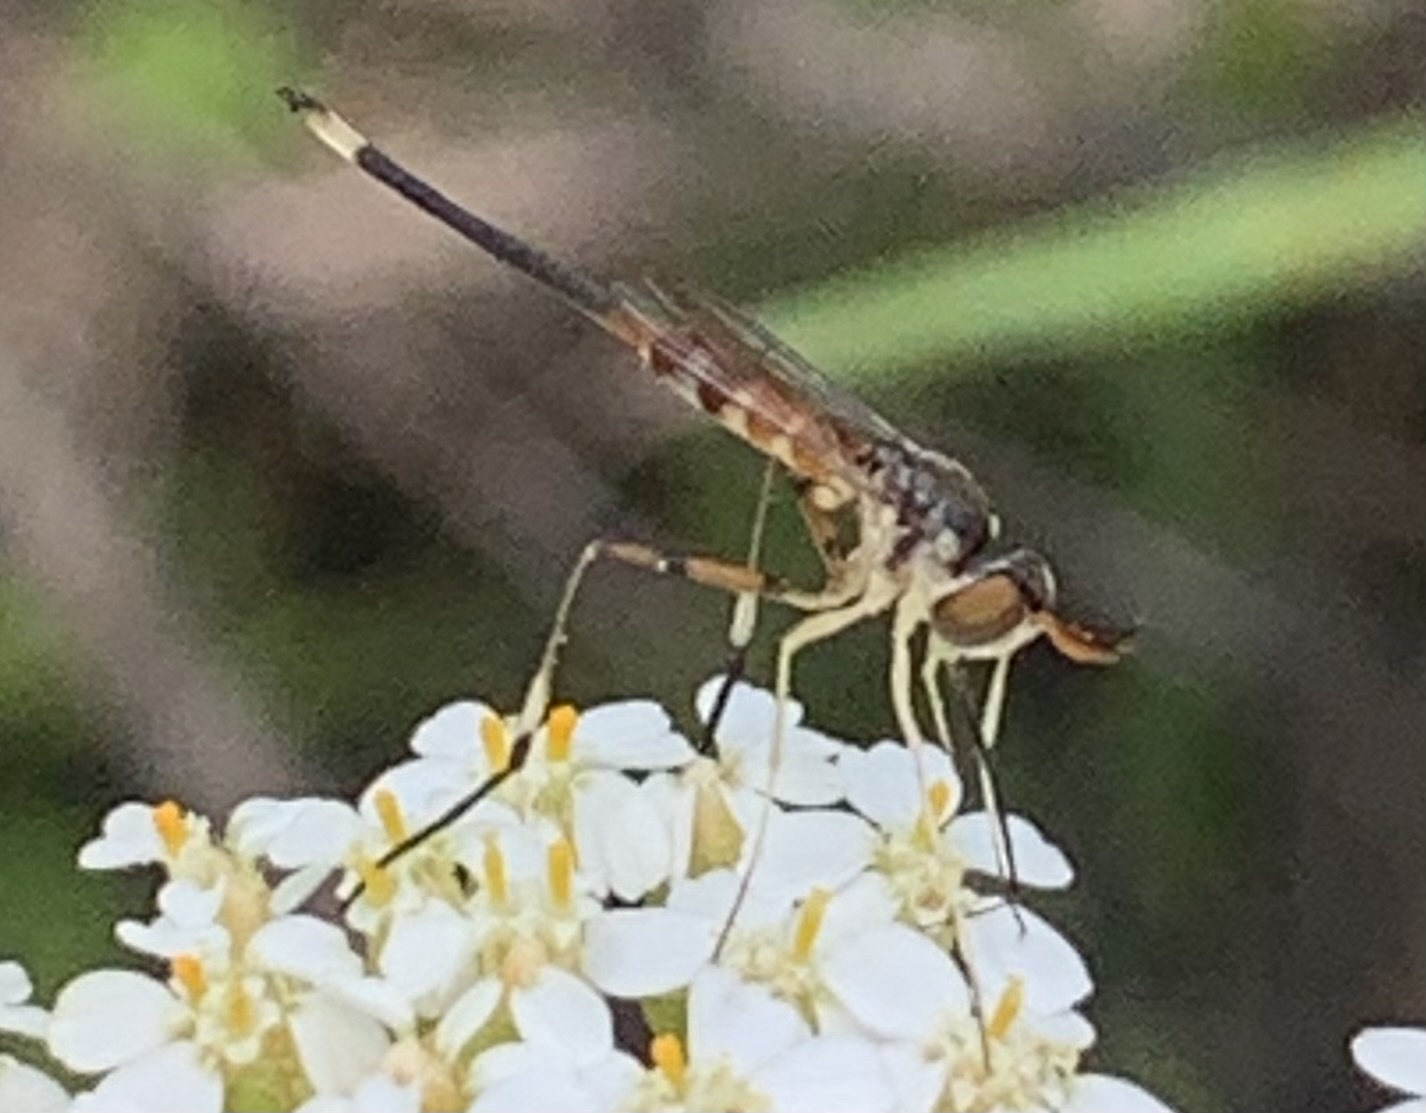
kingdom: Animalia
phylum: Arthropoda
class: Insecta
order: Diptera
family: Conopidae
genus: Stylogaster
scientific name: Stylogaster neglecta
